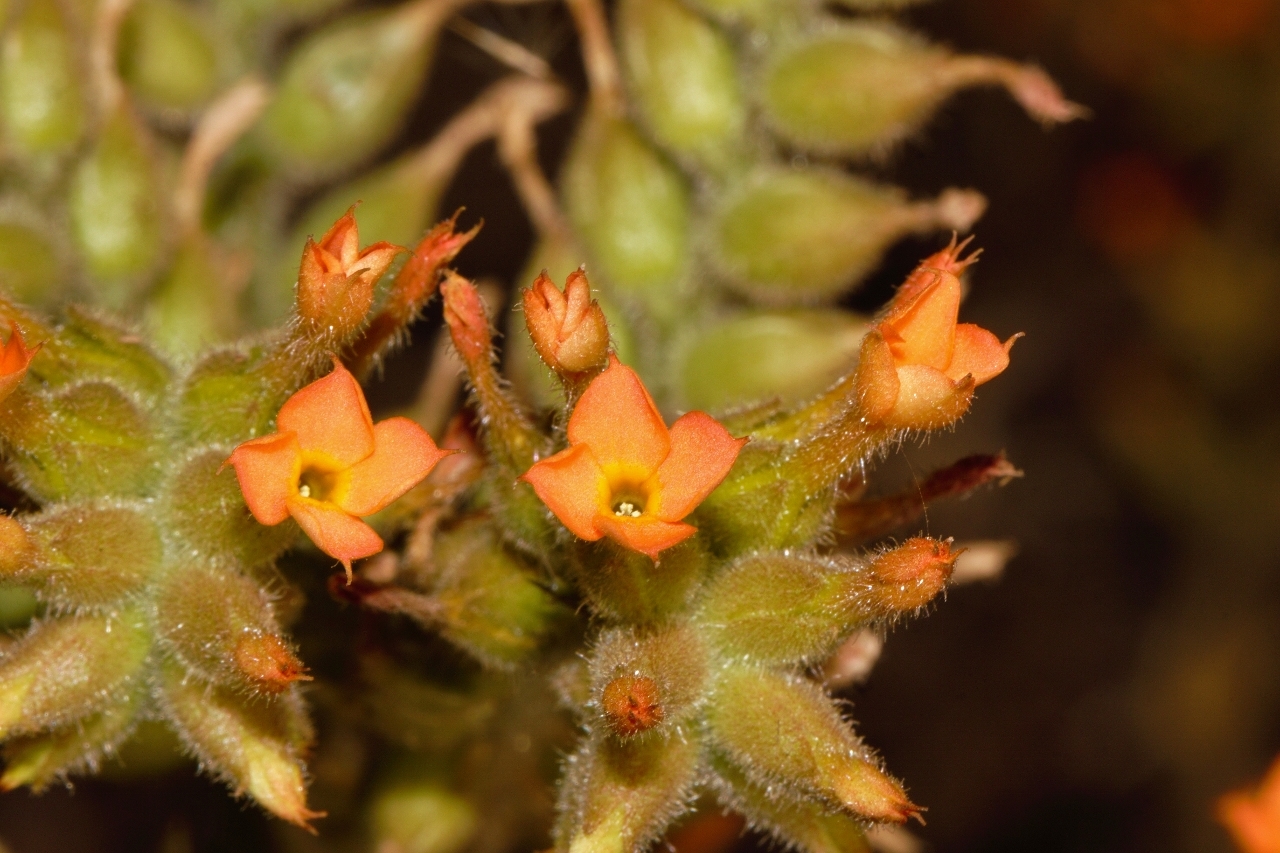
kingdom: Plantae
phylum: Tracheophyta
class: Magnoliopsida
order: Saxifragales
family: Crassulaceae
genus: Kalanchoe
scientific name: Kalanchoe lanceolata
